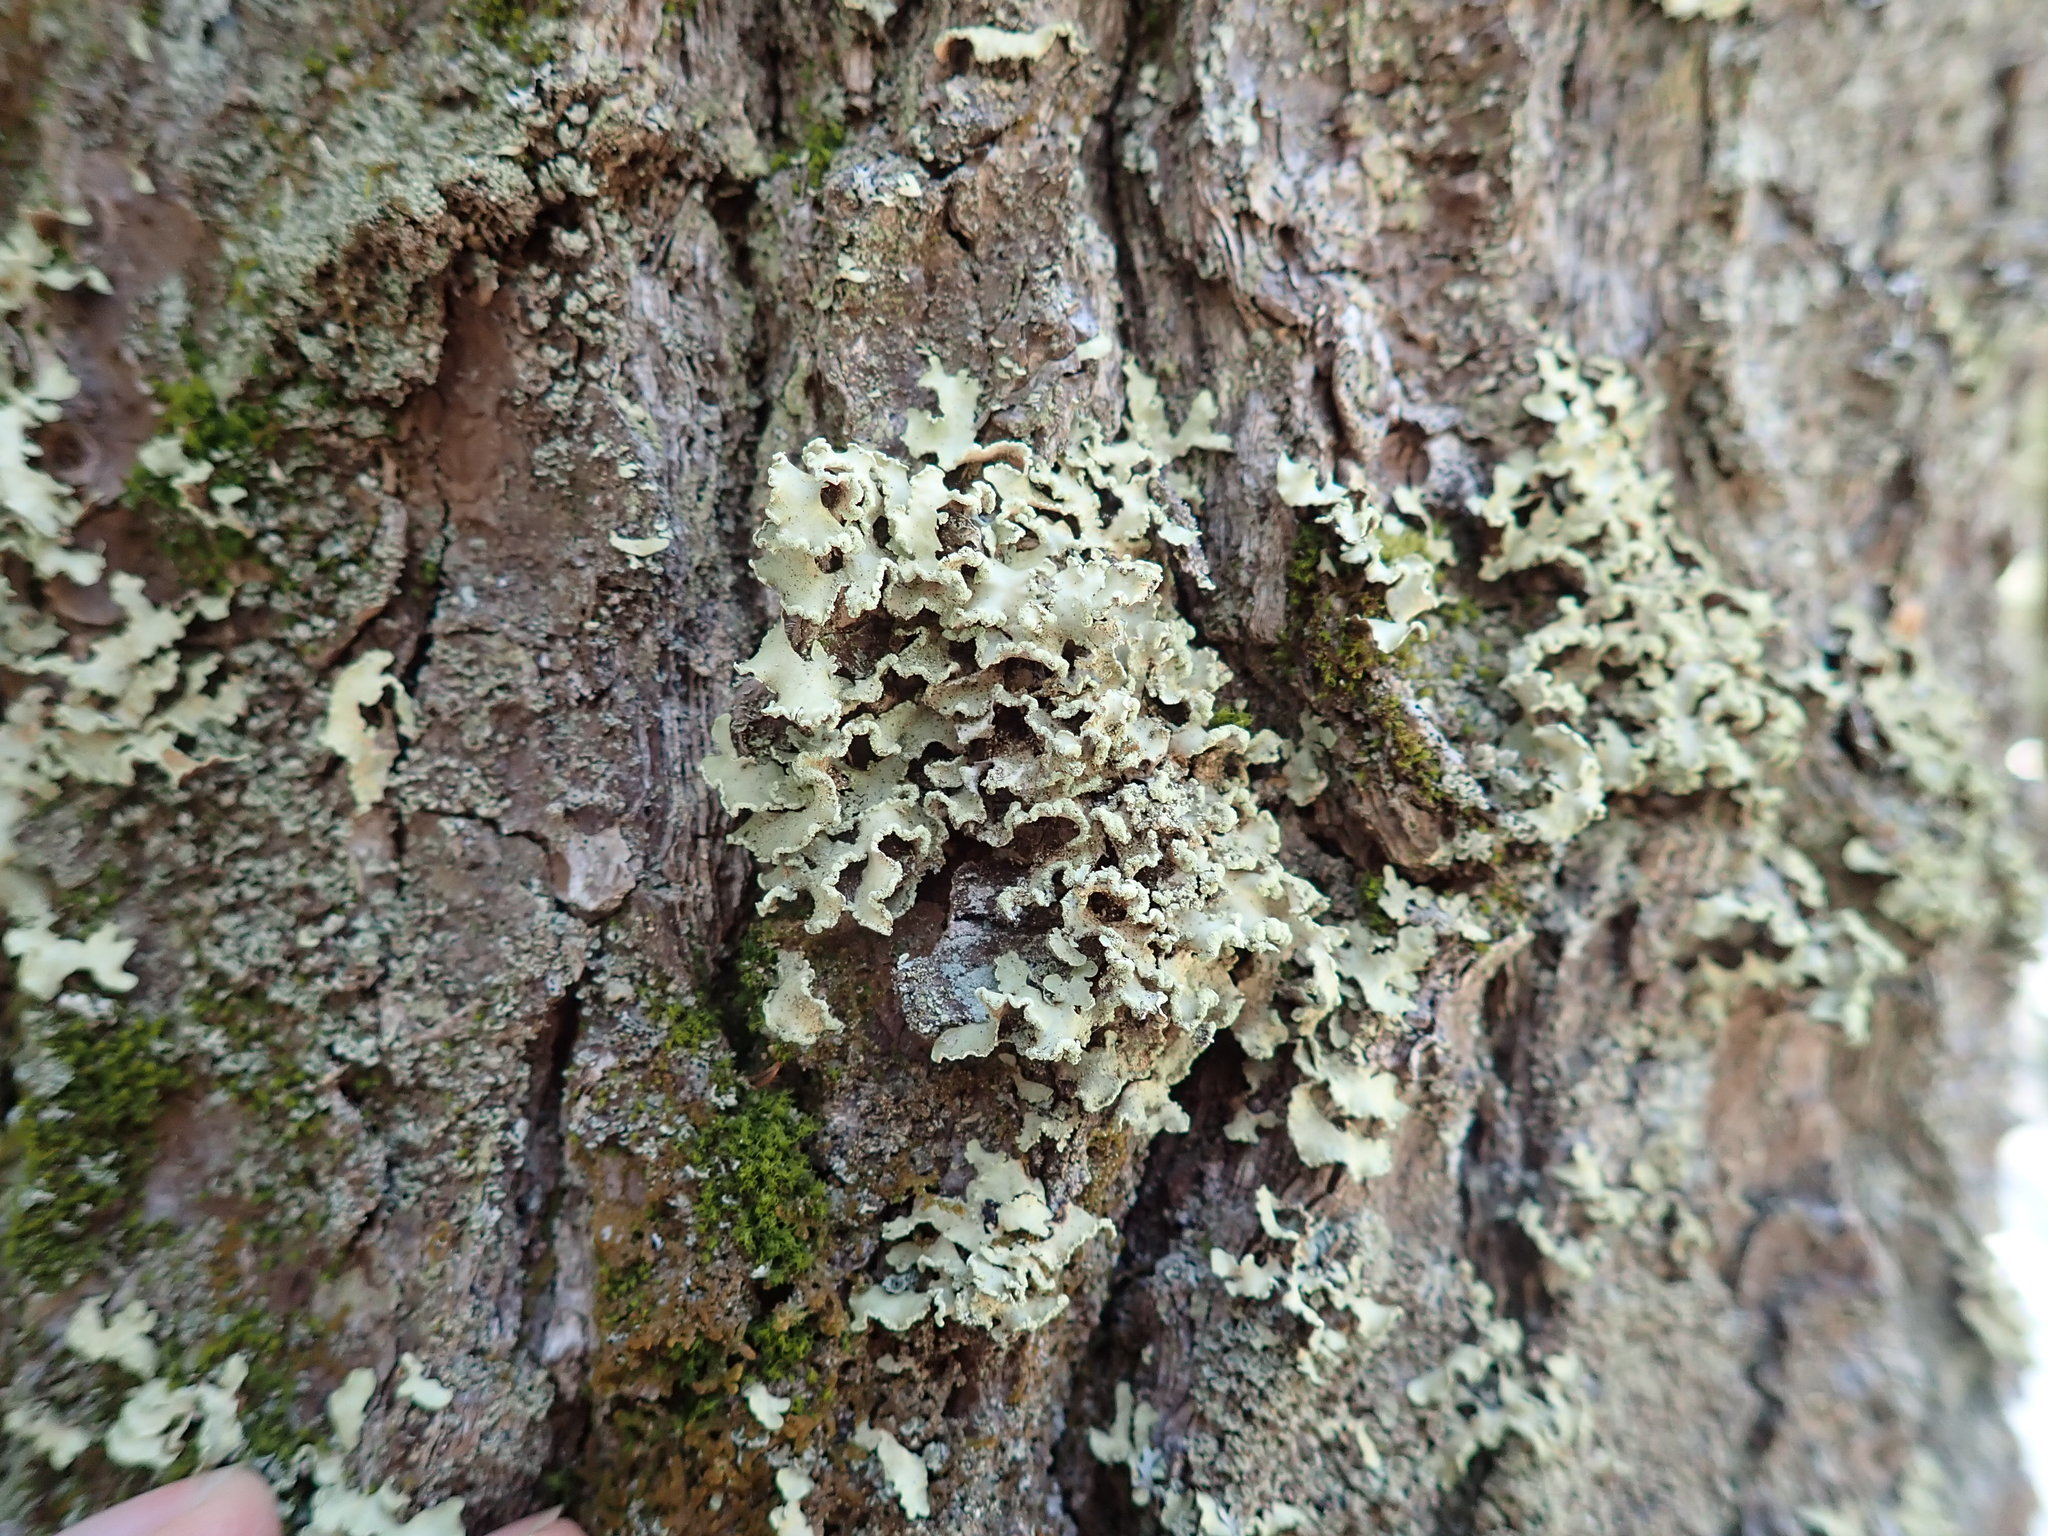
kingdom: Fungi
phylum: Ascomycota
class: Lecanoromycetes
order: Lecanorales
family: Parmeliaceae
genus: Usnocetraria
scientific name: Usnocetraria oakesiana
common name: Yellow ribbon lichen
